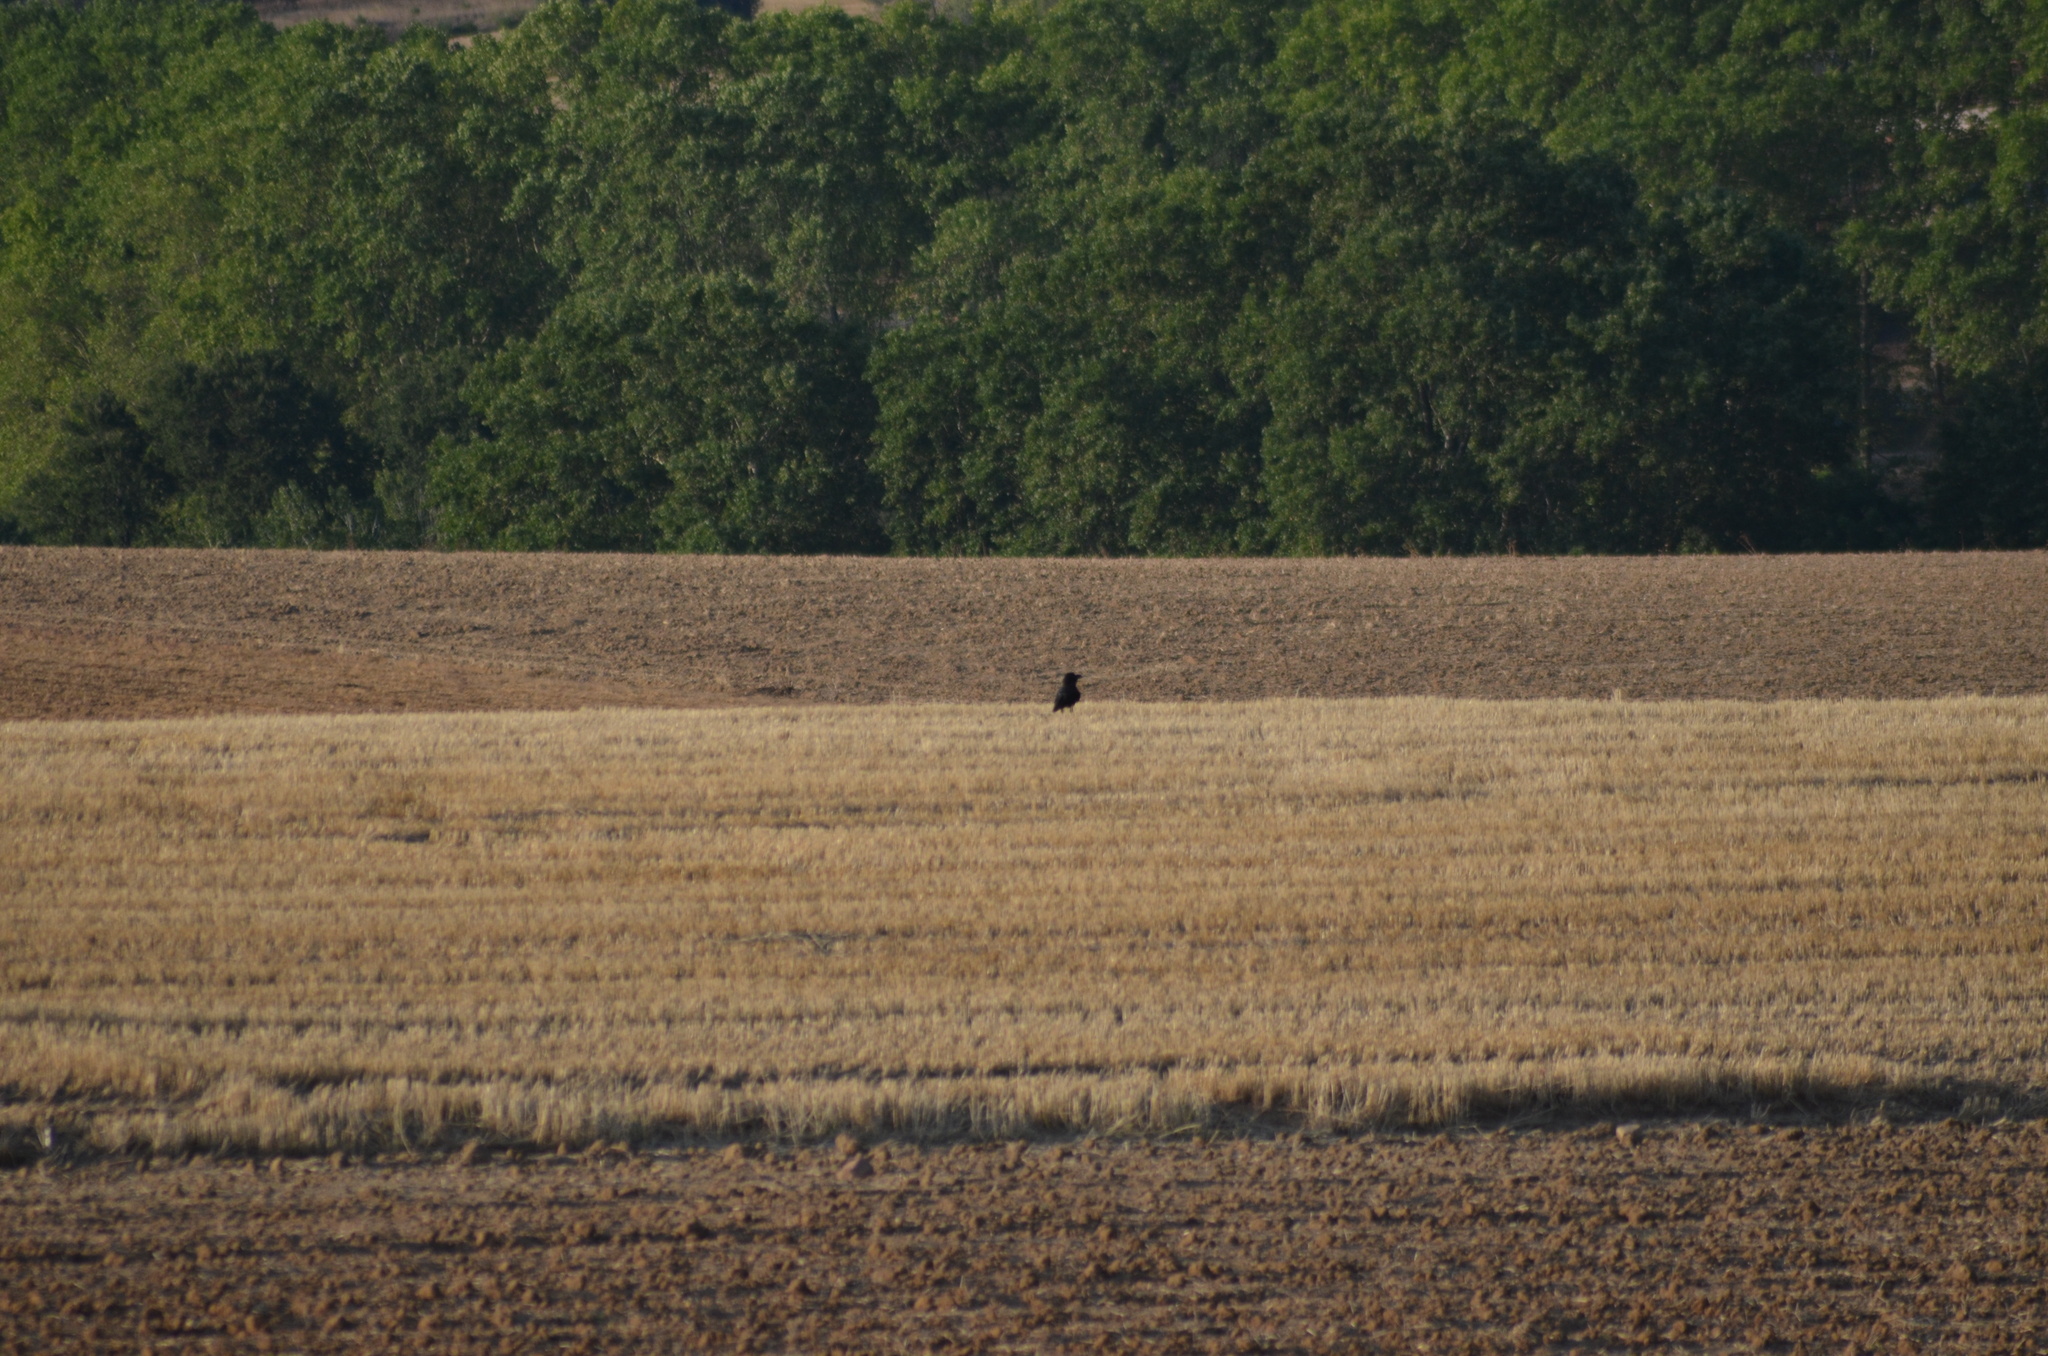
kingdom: Animalia
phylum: Chordata
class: Aves
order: Passeriformes
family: Corvidae
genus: Corvus
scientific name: Corvus corax
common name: Common raven
